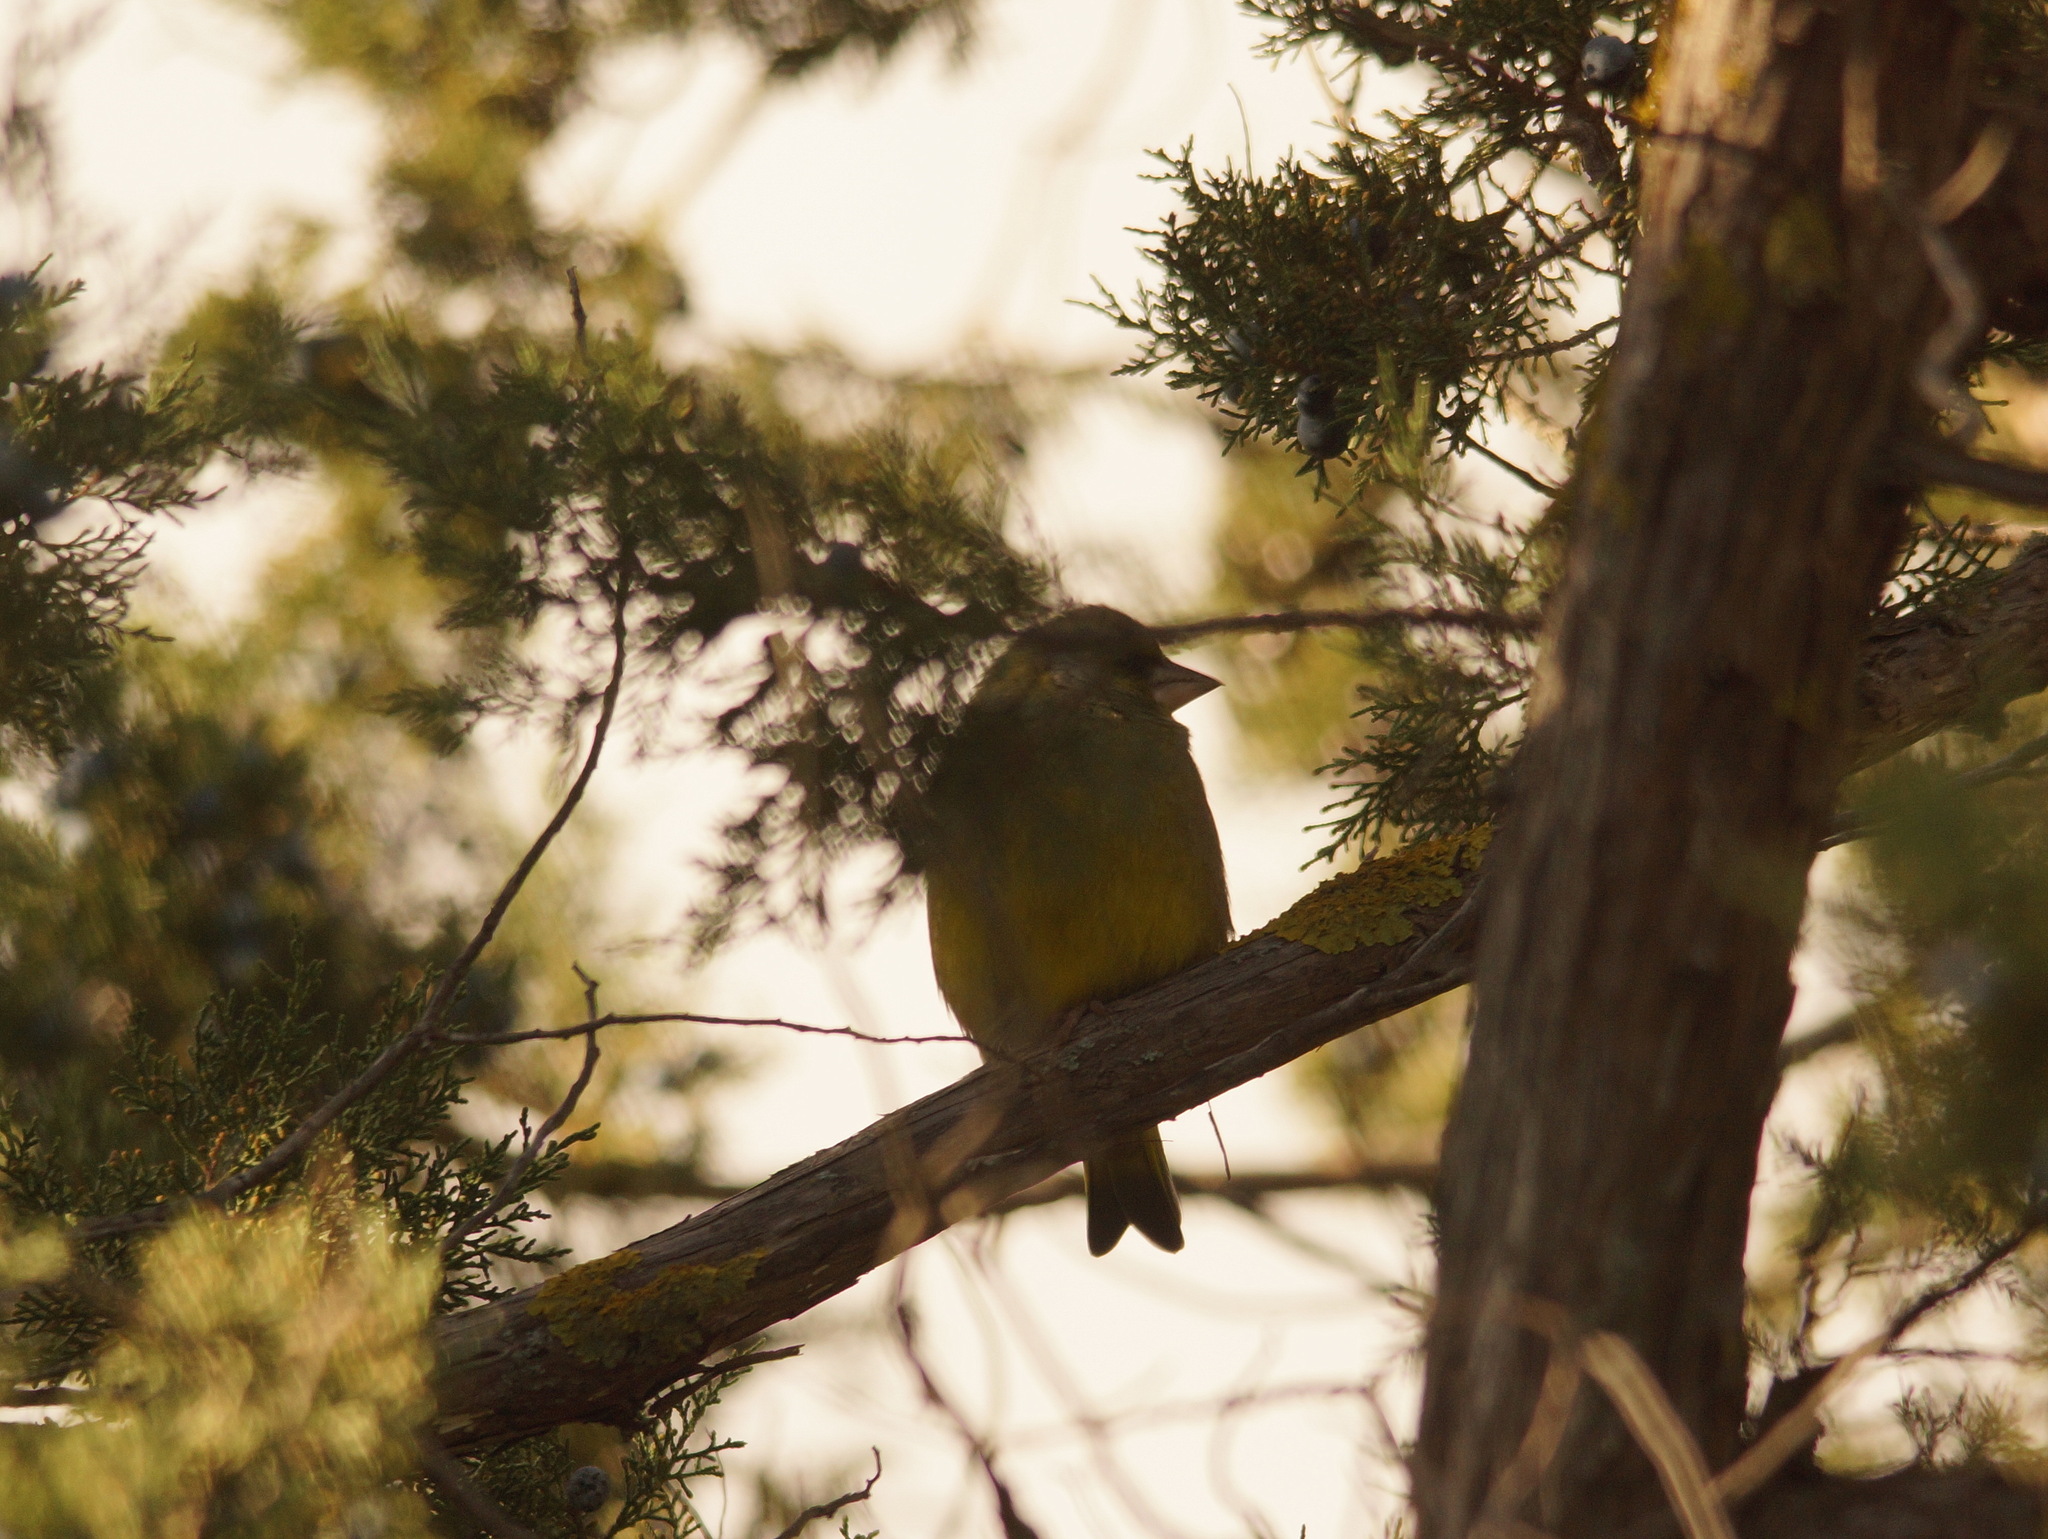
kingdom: Plantae
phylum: Tracheophyta
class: Liliopsida
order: Poales
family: Poaceae
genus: Chloris
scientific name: Chloris chloris
